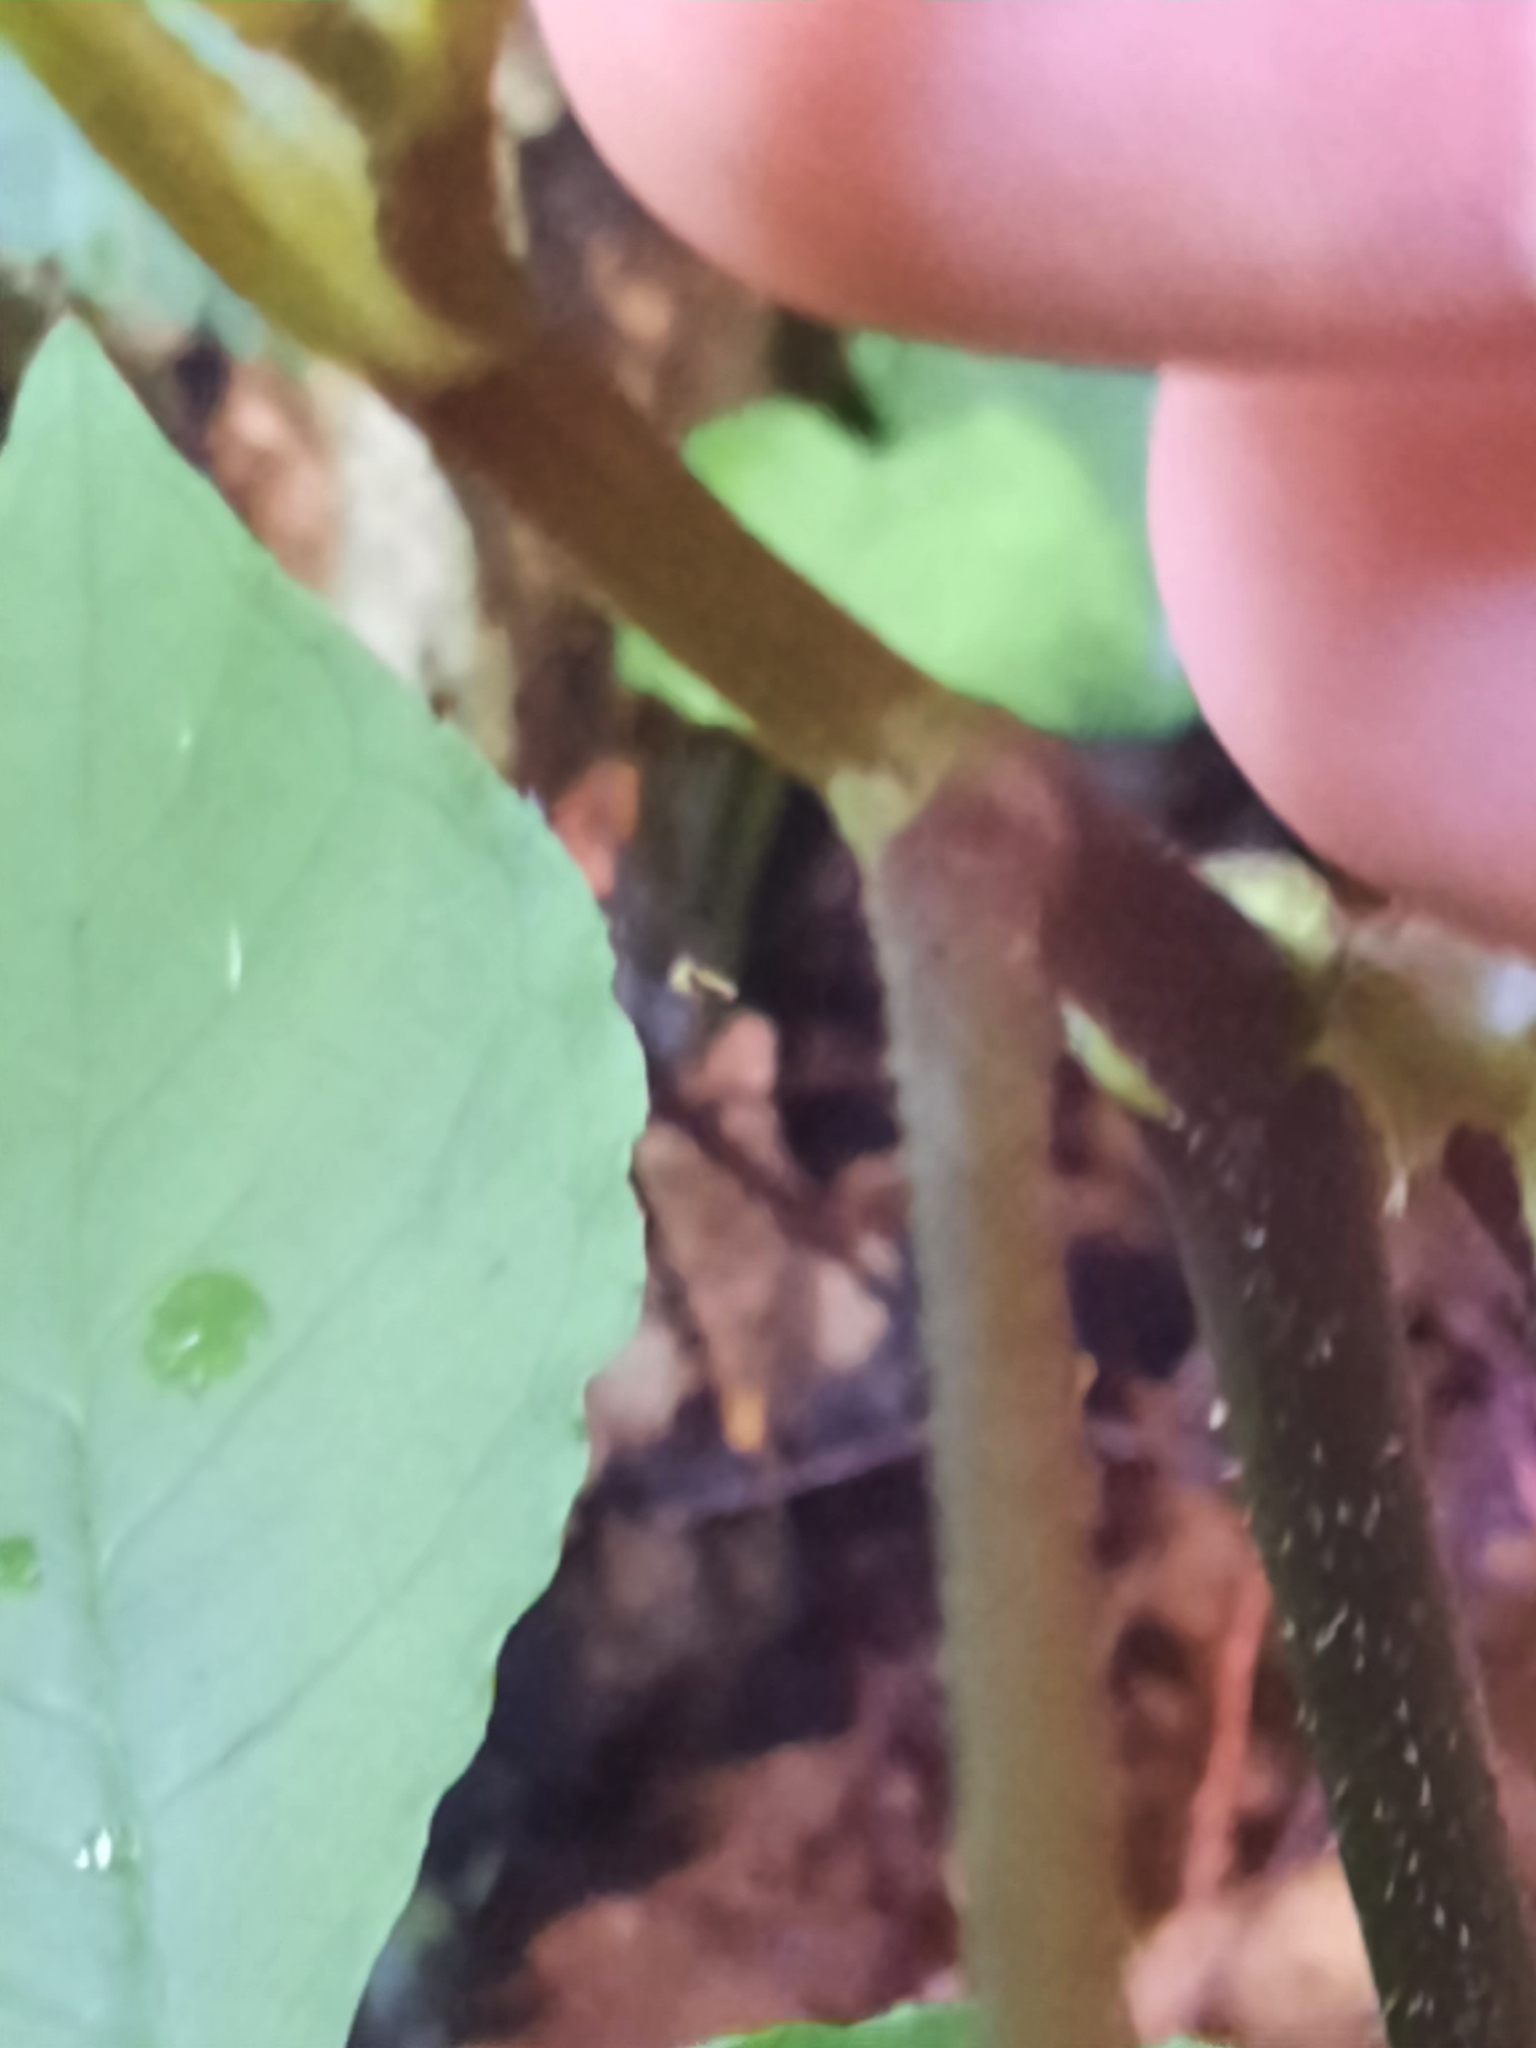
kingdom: Plantae
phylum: Tracheophyta
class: Magnoliopsida
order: Apiales
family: Araliaceae
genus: Aralia
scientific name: Aralia racemosa
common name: American-spikenard
